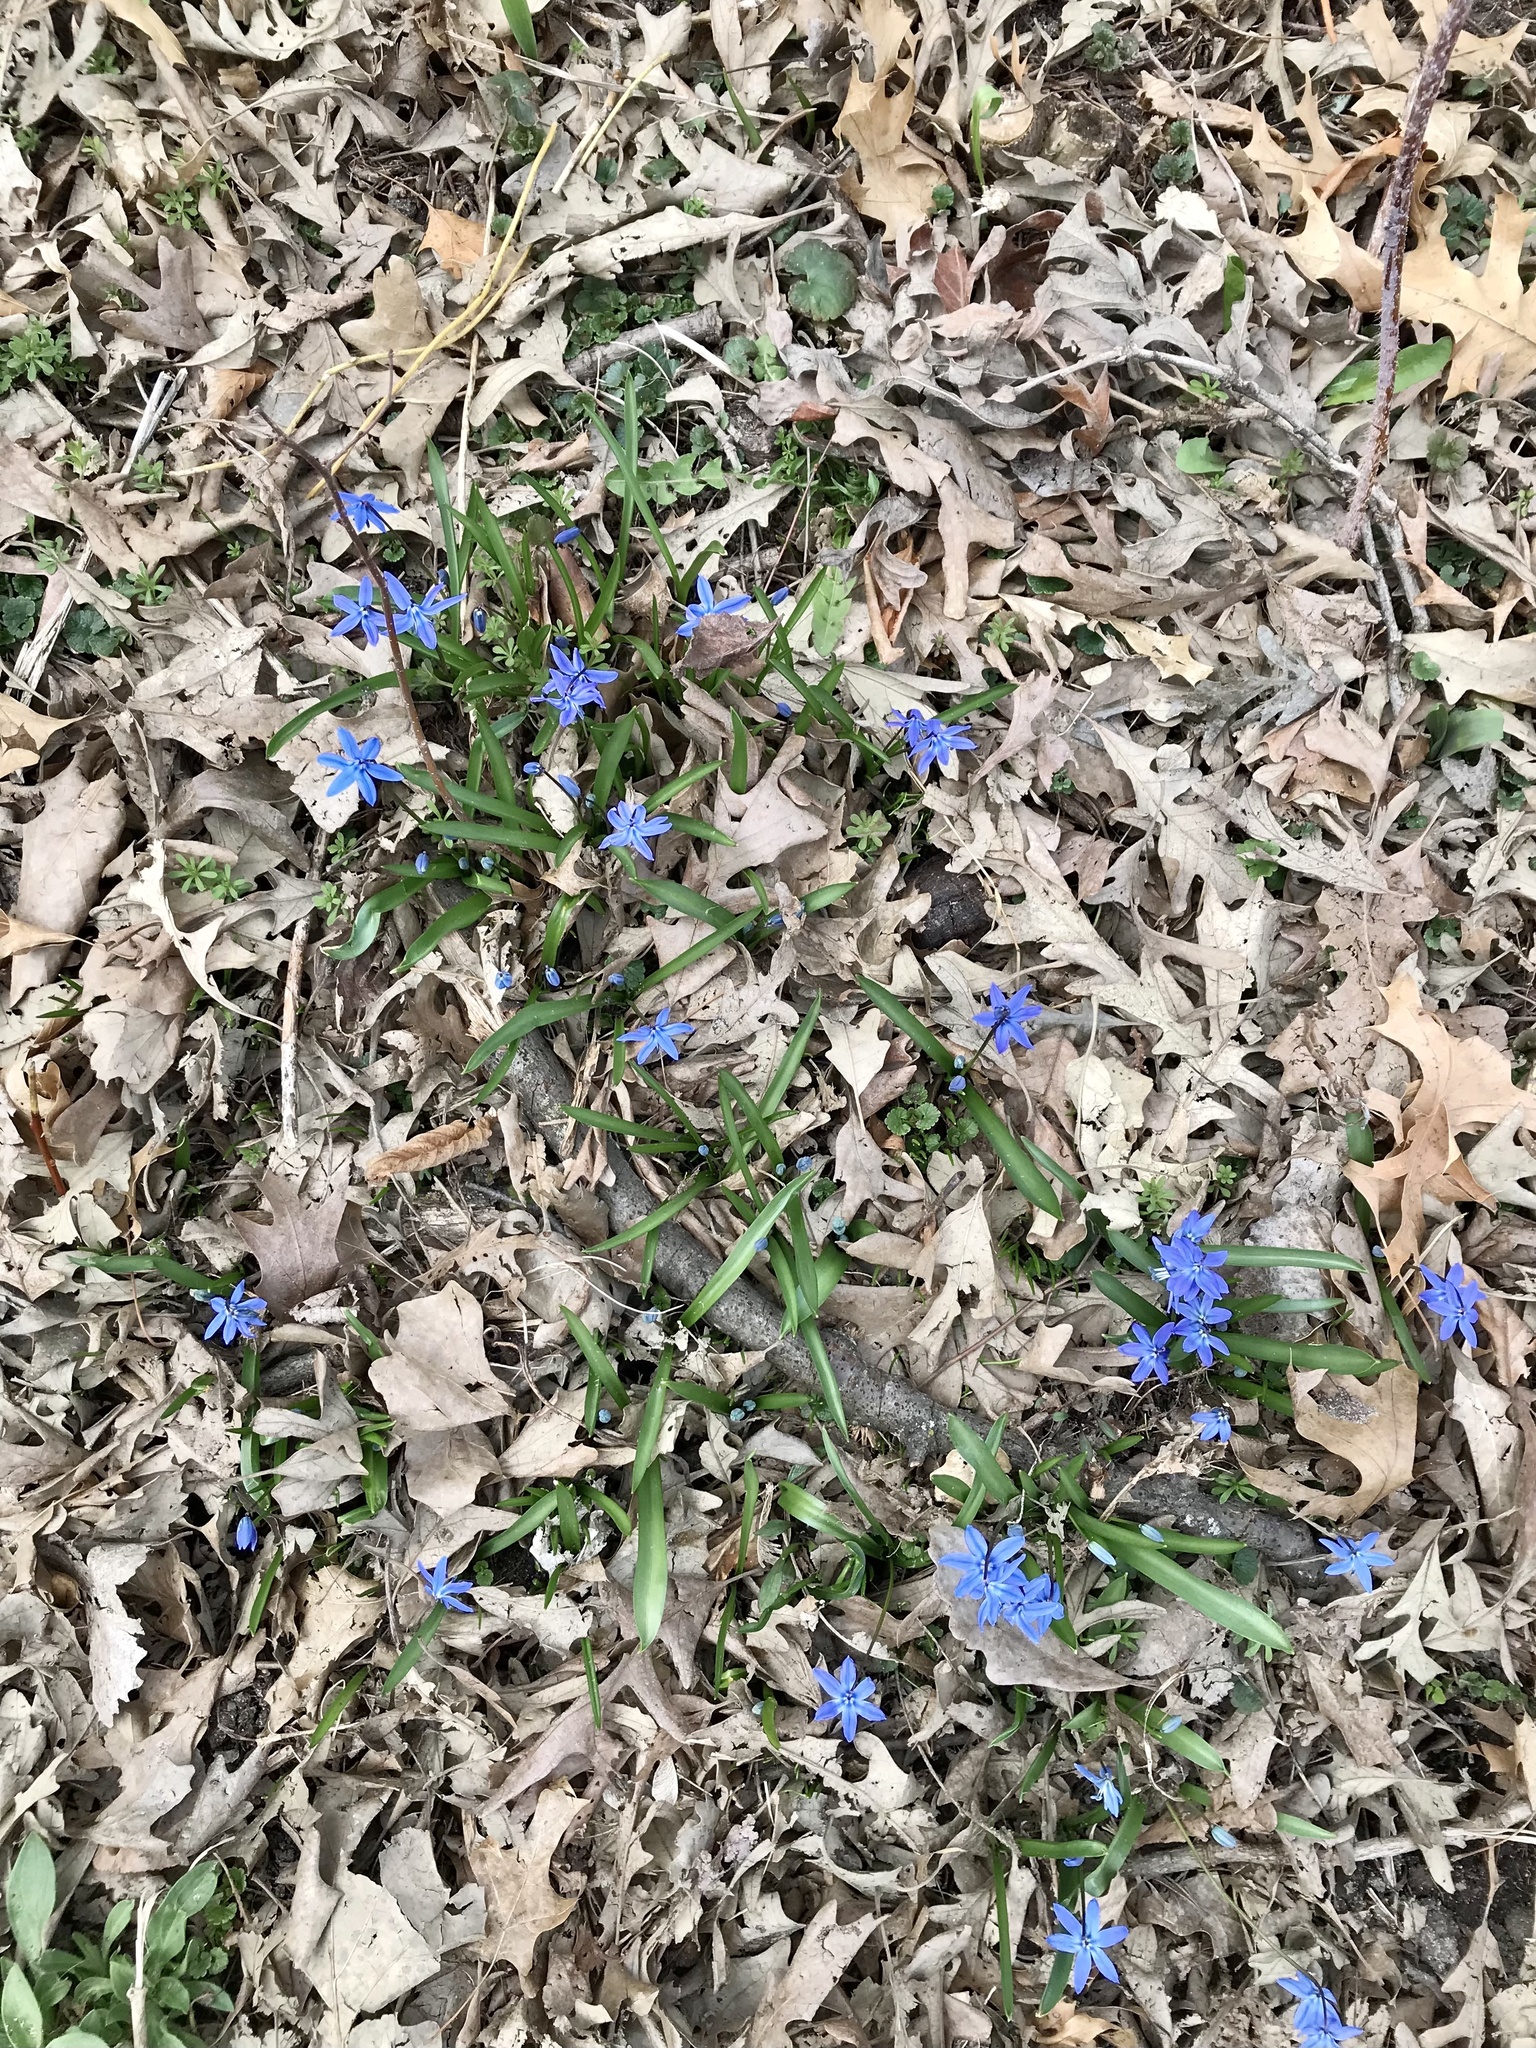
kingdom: Plantae
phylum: Tracheophyta
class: Liliopsida
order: Asparagales
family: Asparagaceae
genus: Scilla
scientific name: Scilla siberica
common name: Siberian squill
